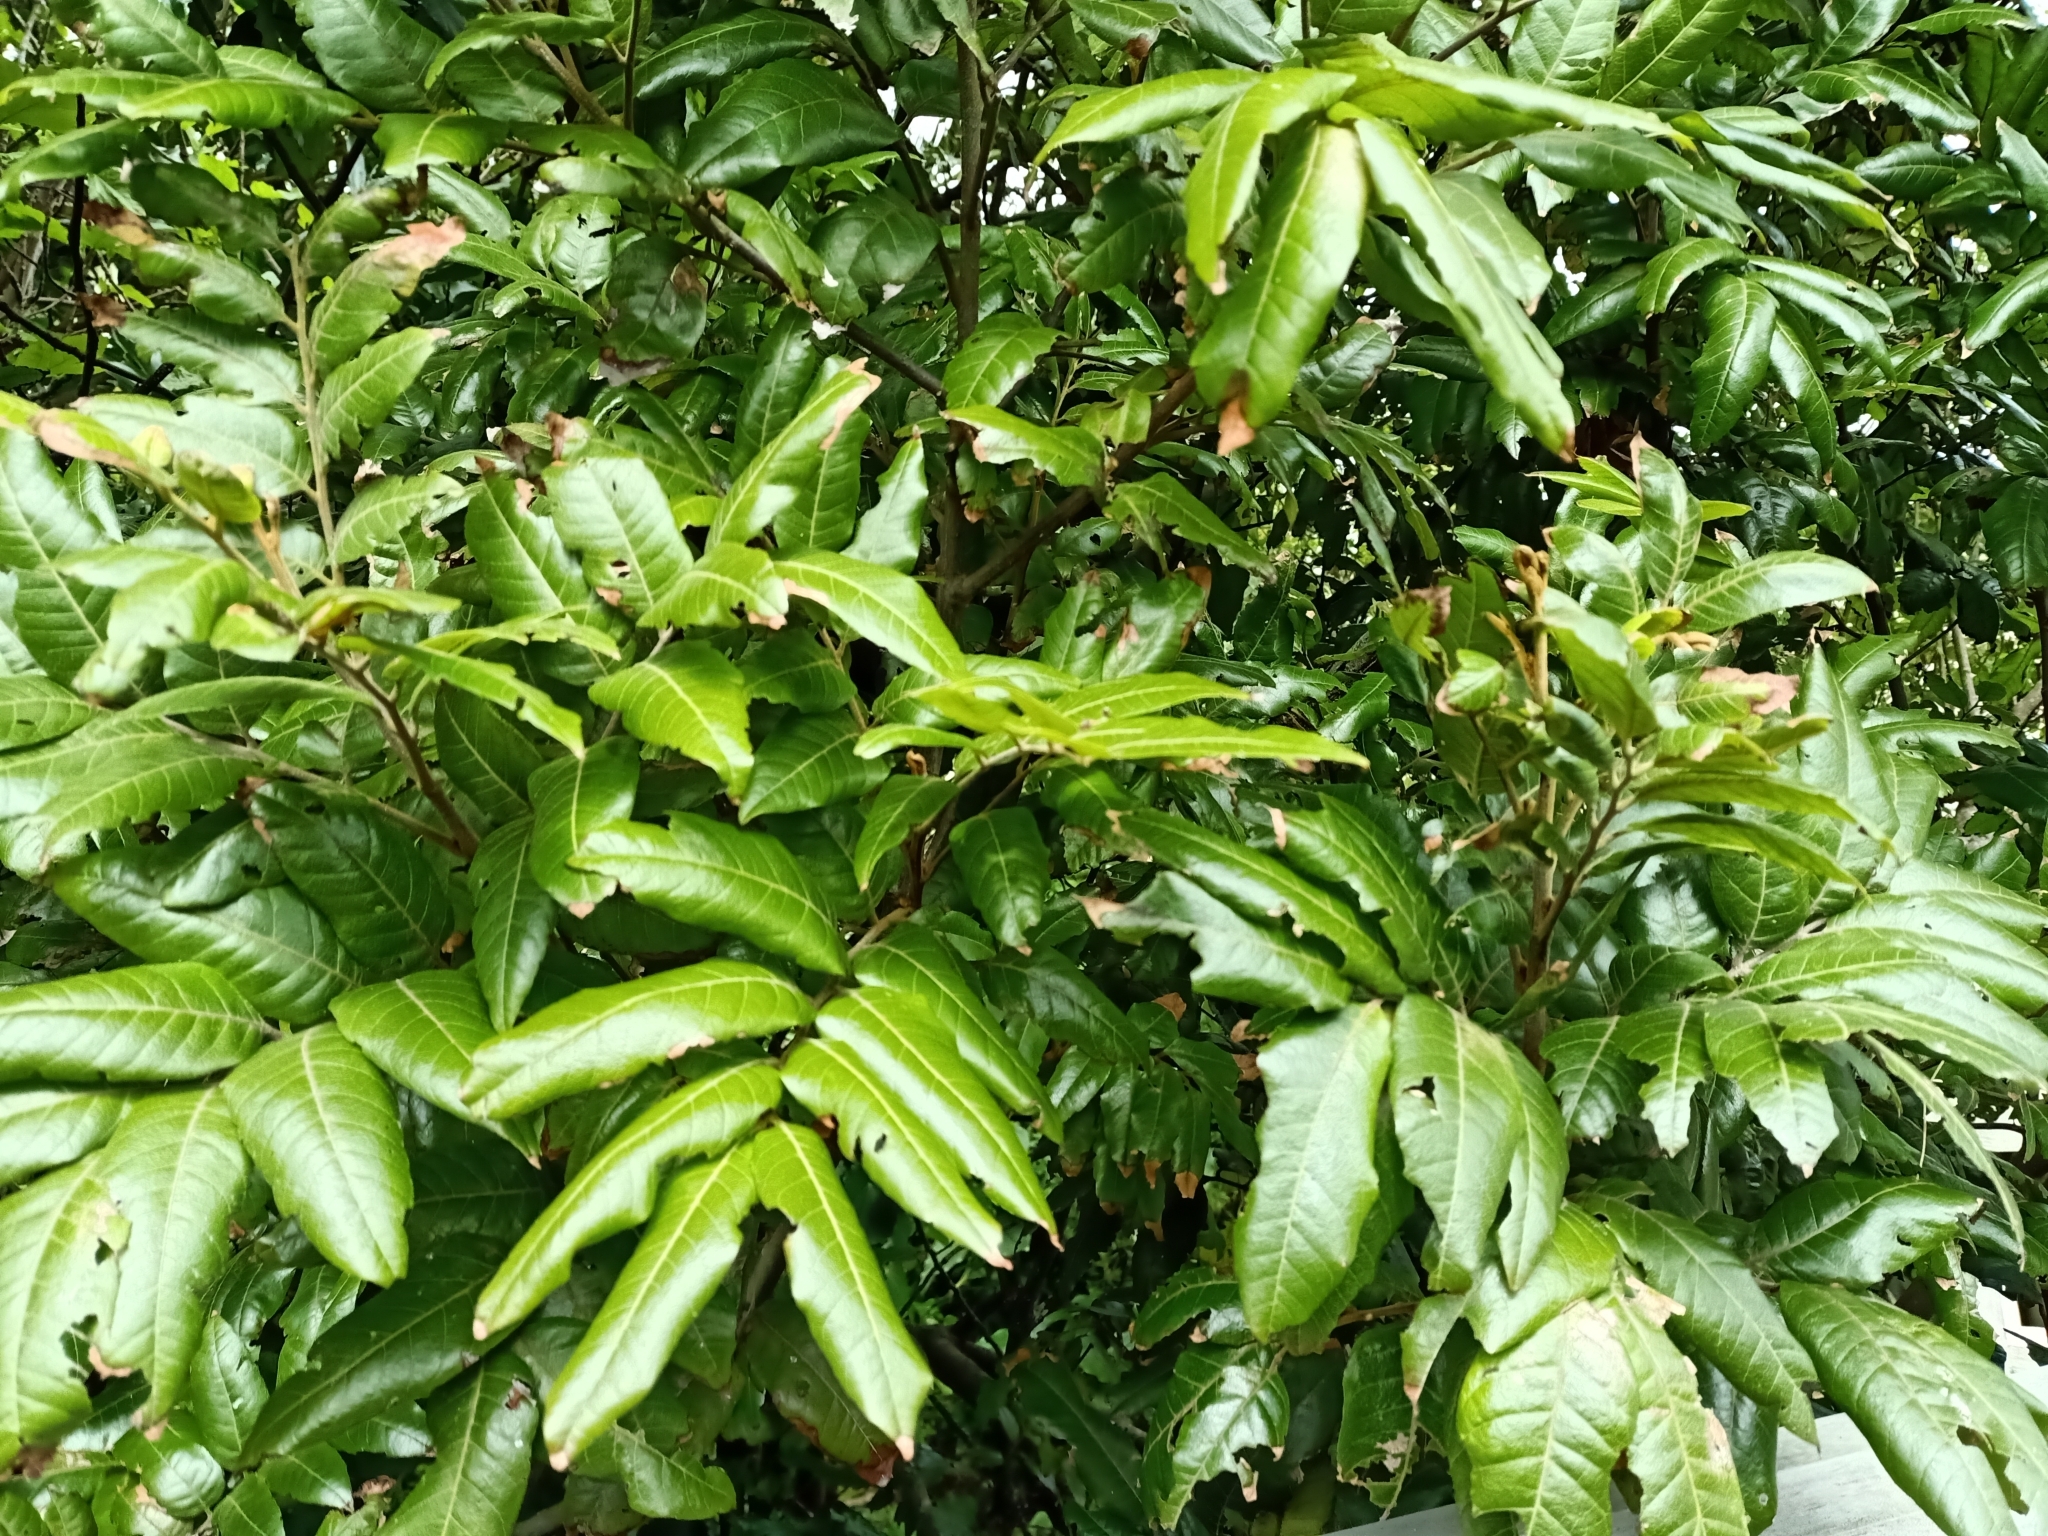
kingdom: Plantae
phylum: Tracheophyta
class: Magnoliopsida
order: Sapindales
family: Sapindaceae
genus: Alectryon
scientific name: Alectryon excelsus
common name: Three kings titoki
